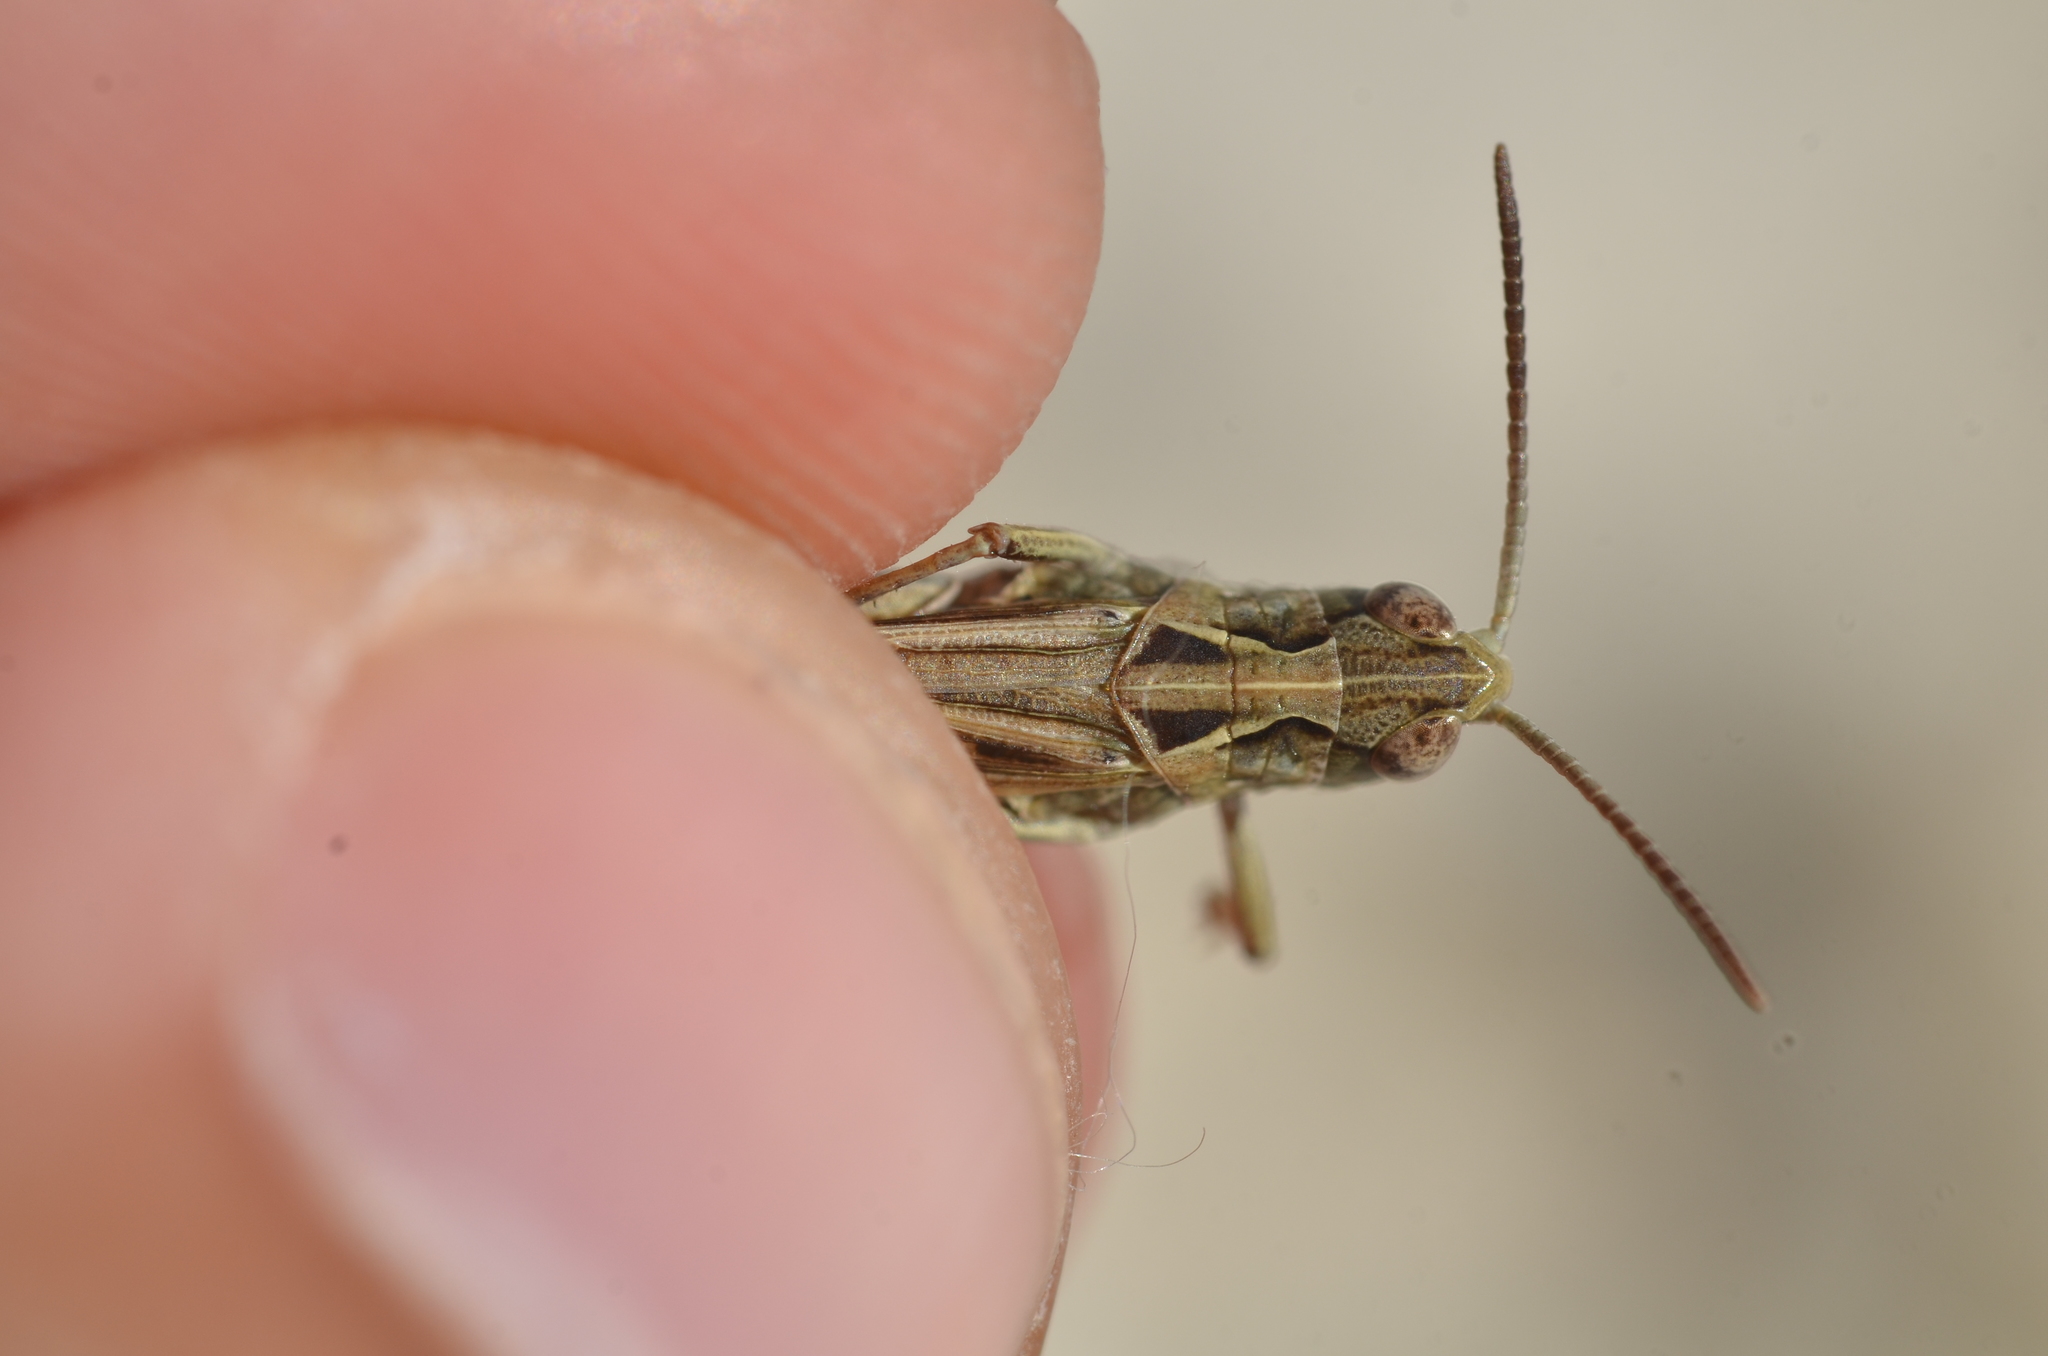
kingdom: Animalia
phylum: Arthropoda
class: Insecta
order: Orthoptera
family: Acrididae
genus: Stauroderus
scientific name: Stauroderus scalaris
